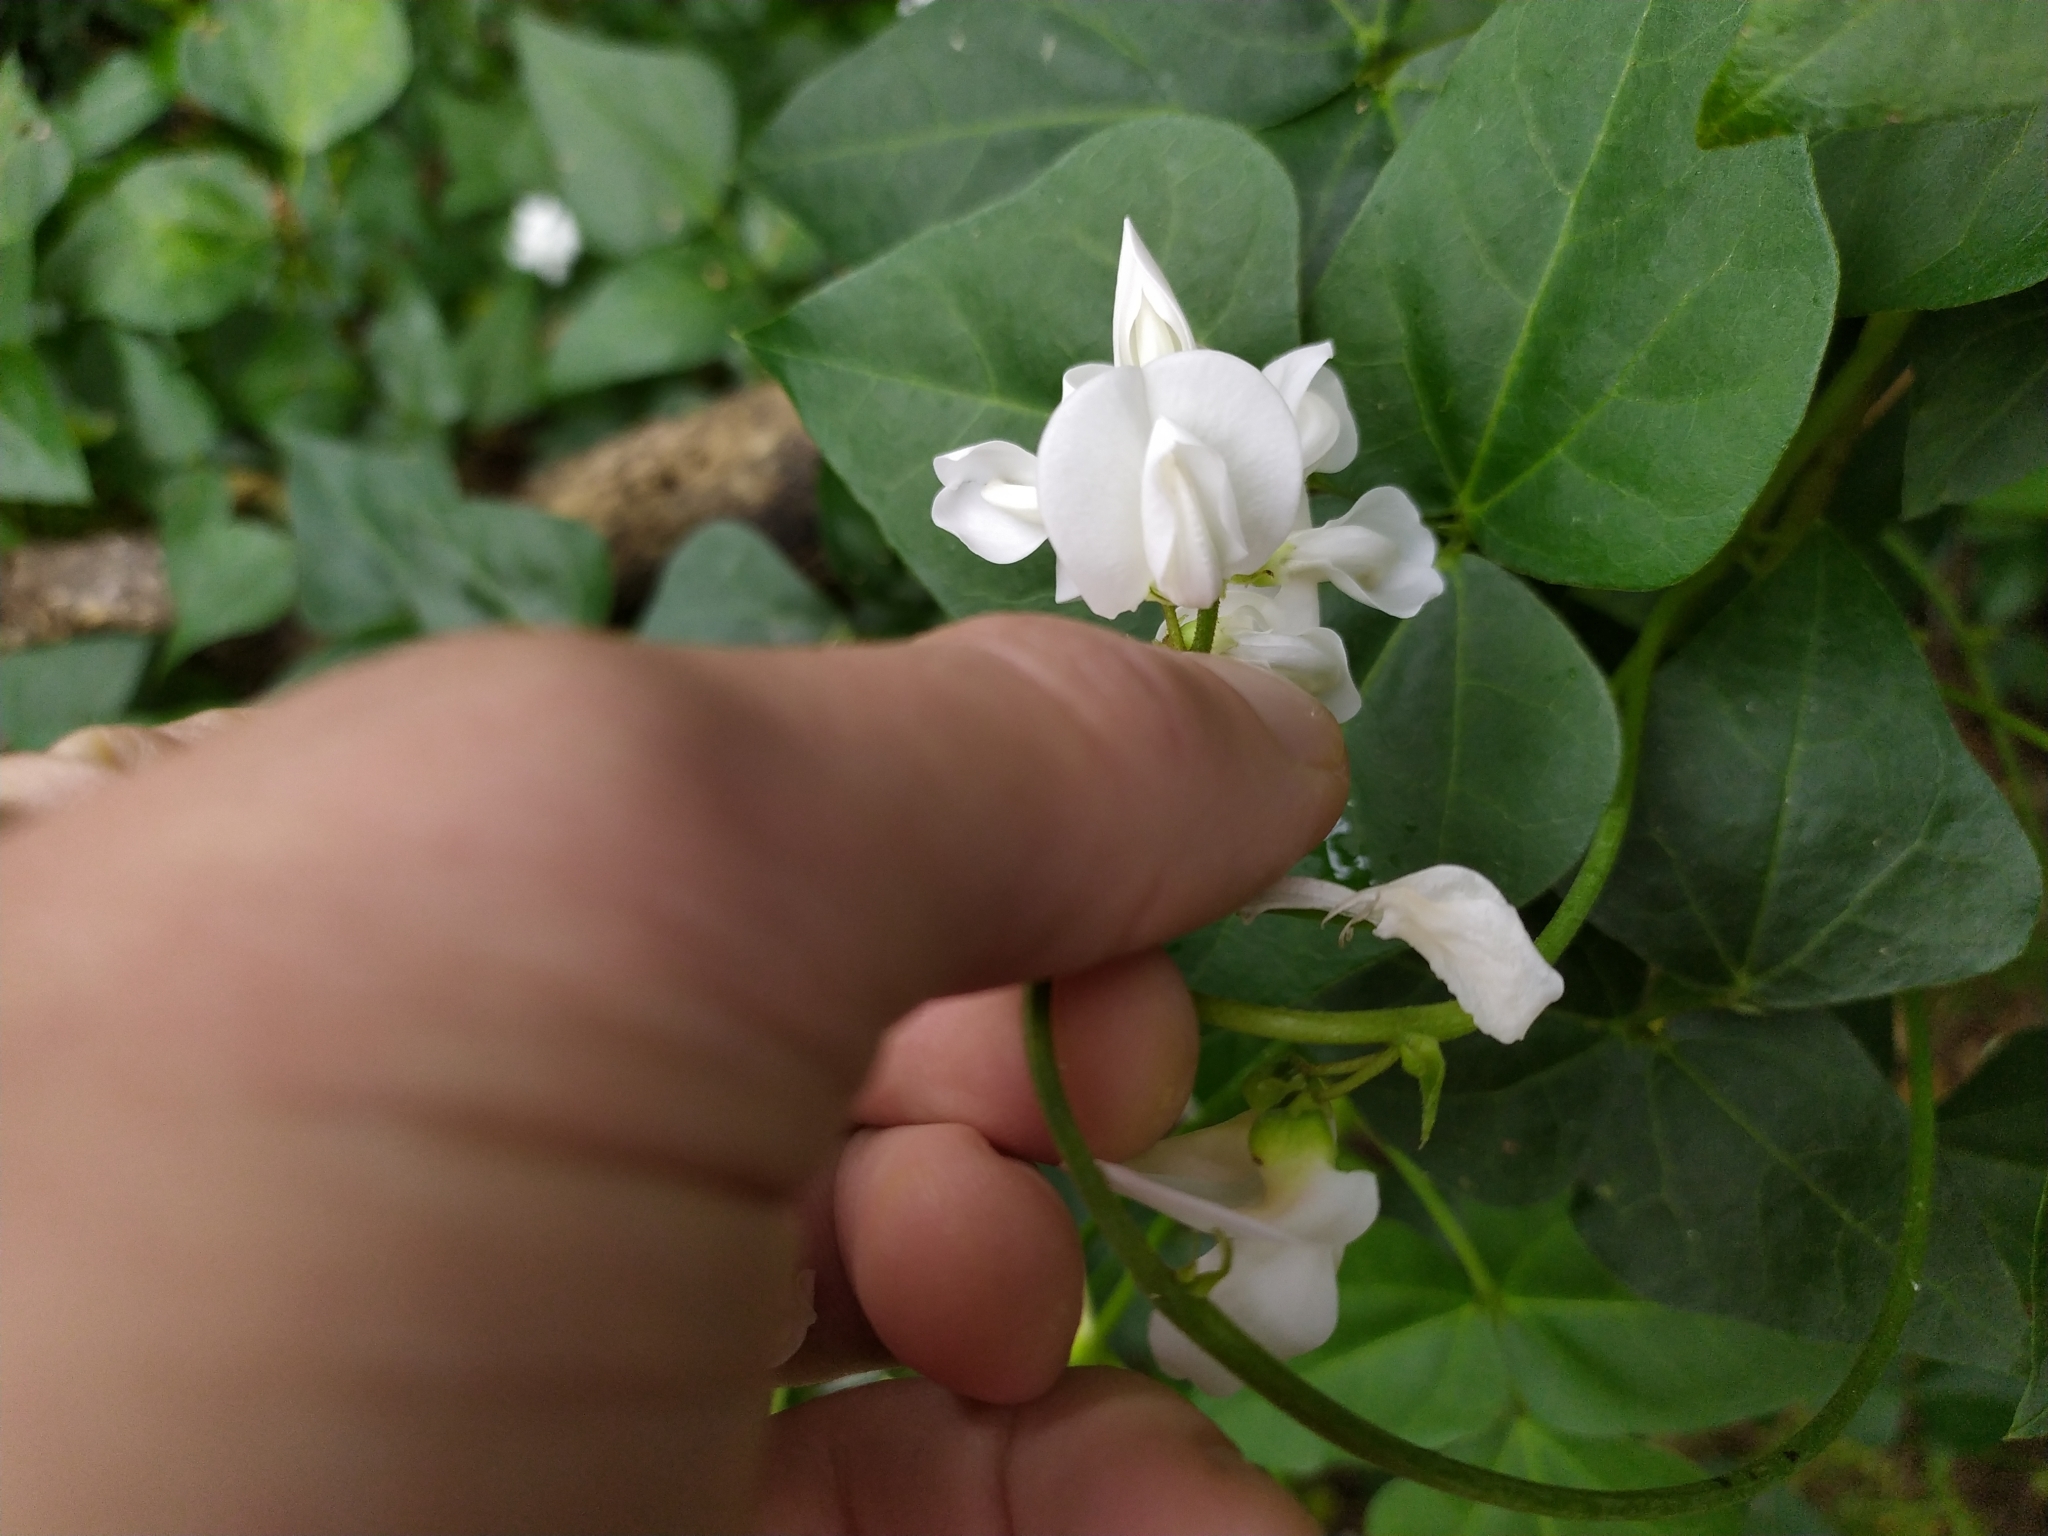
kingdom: Plantae
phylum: Tracheophyta
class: Magnoliopsida
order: Fabales
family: Fabaceae
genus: Dipogon
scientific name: Dipogon lignosus
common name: Okie bean
